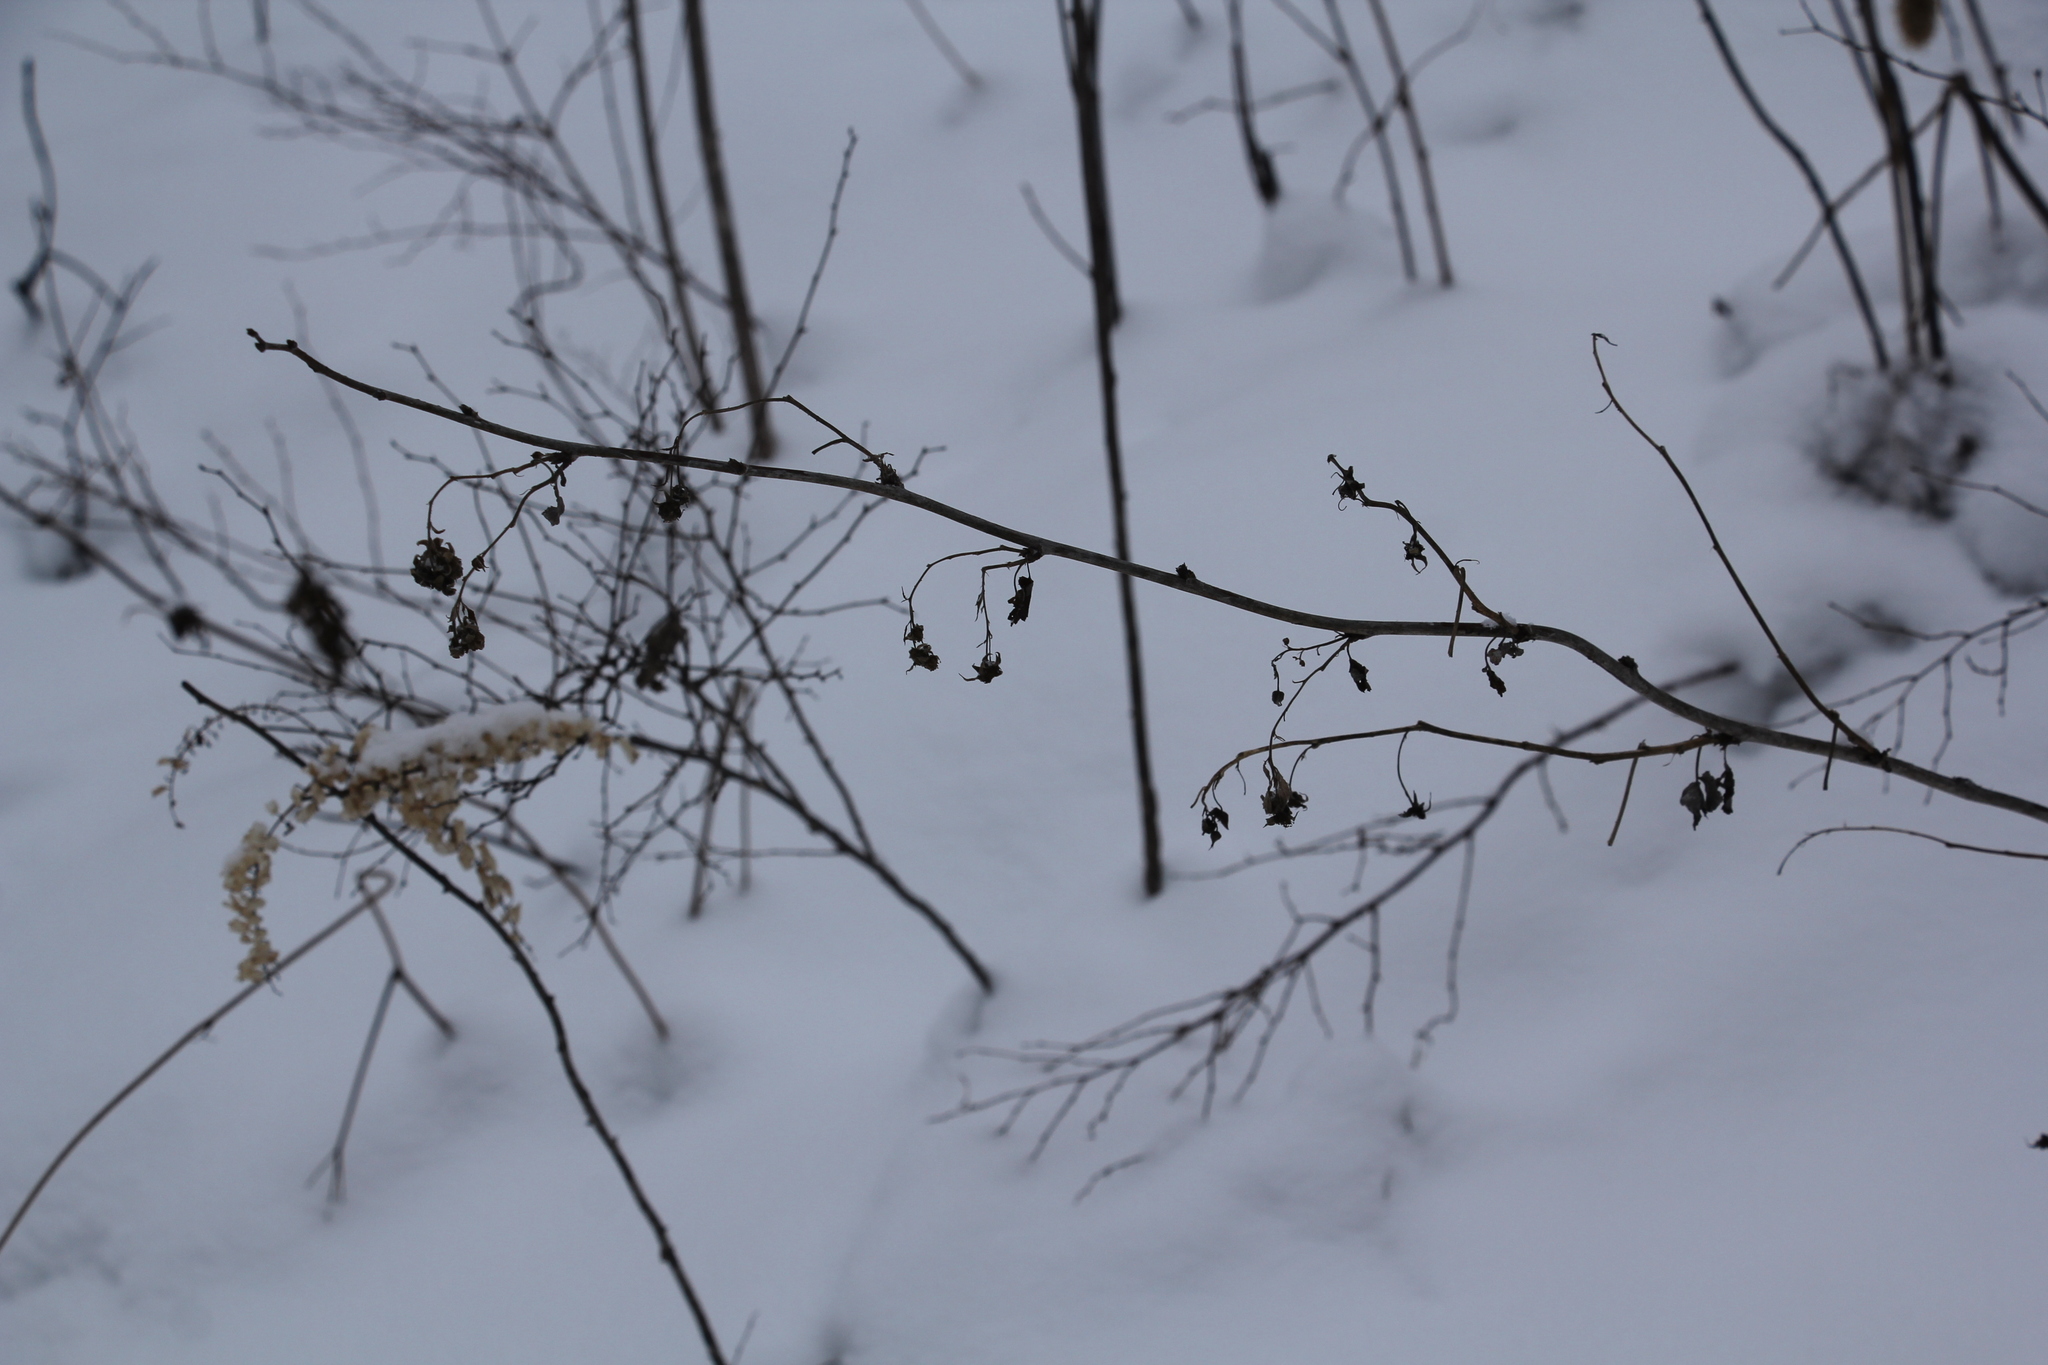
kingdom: Plantae
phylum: Tracheophyta
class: Magnoliopsida
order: Rosales
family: Rosaceae
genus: Rubus
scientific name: Rubus idaeus
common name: Raspberry
